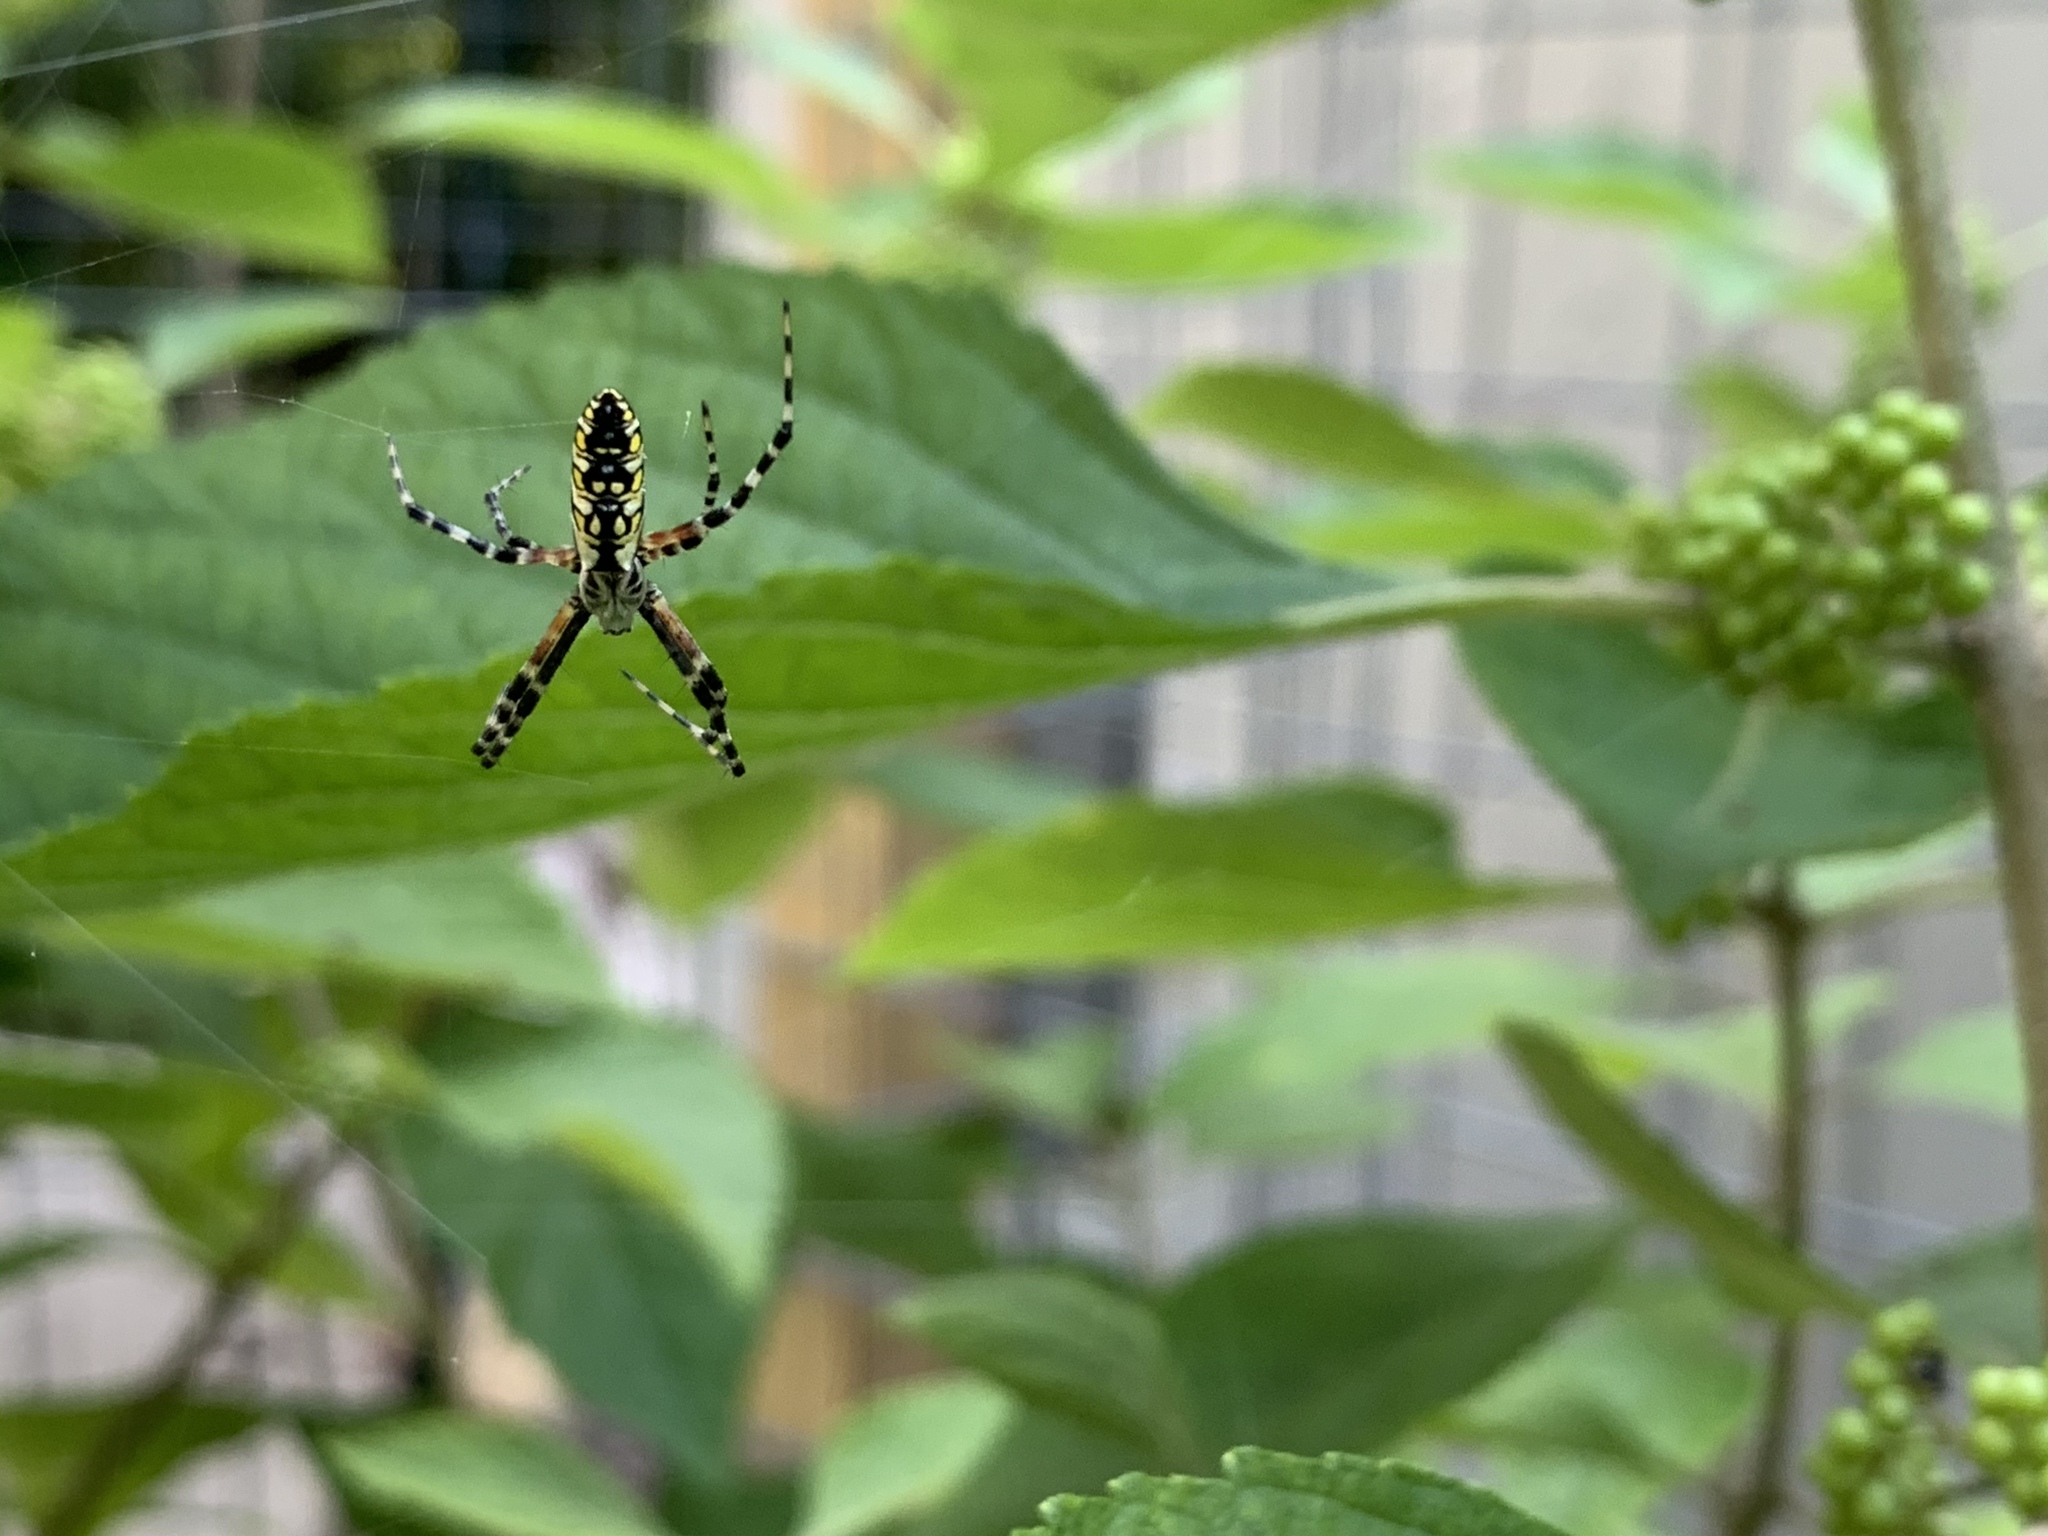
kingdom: Animalia
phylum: Arthropoda
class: Arachnida
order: Araneae
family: Araneidae
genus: Argiope
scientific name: Argiope aurantia
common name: Orb weavers
